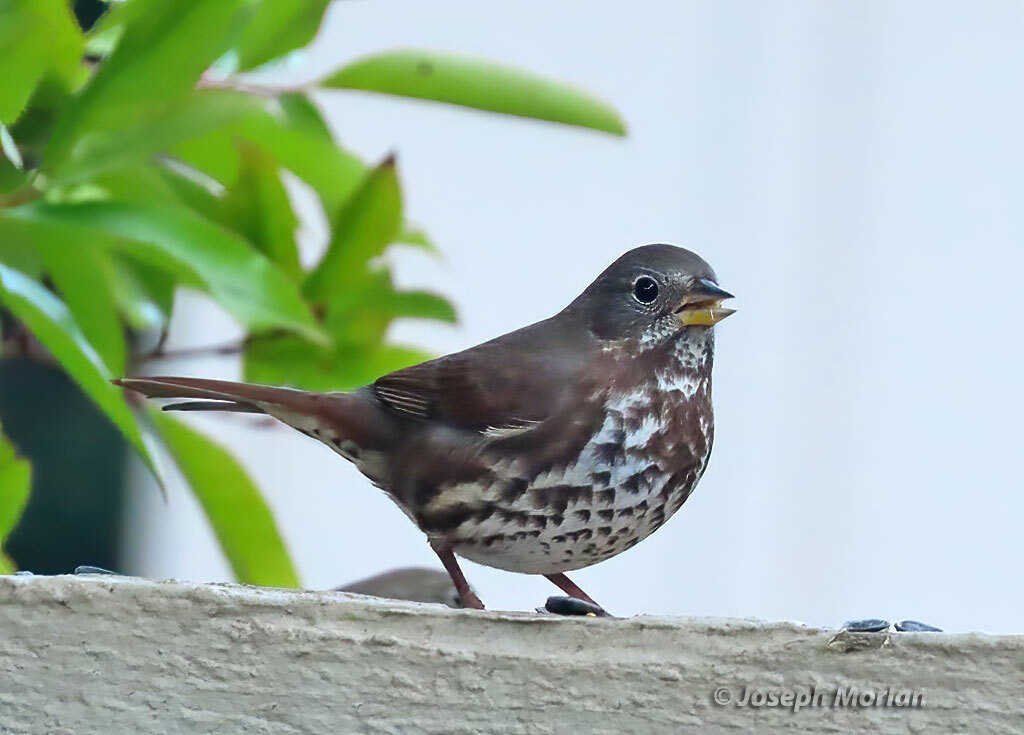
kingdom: Animalia
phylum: Chordata
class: Aves
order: Passeriformes
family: Passerellidae
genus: Passerella
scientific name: Passerella iliaca
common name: Fox sparrow
